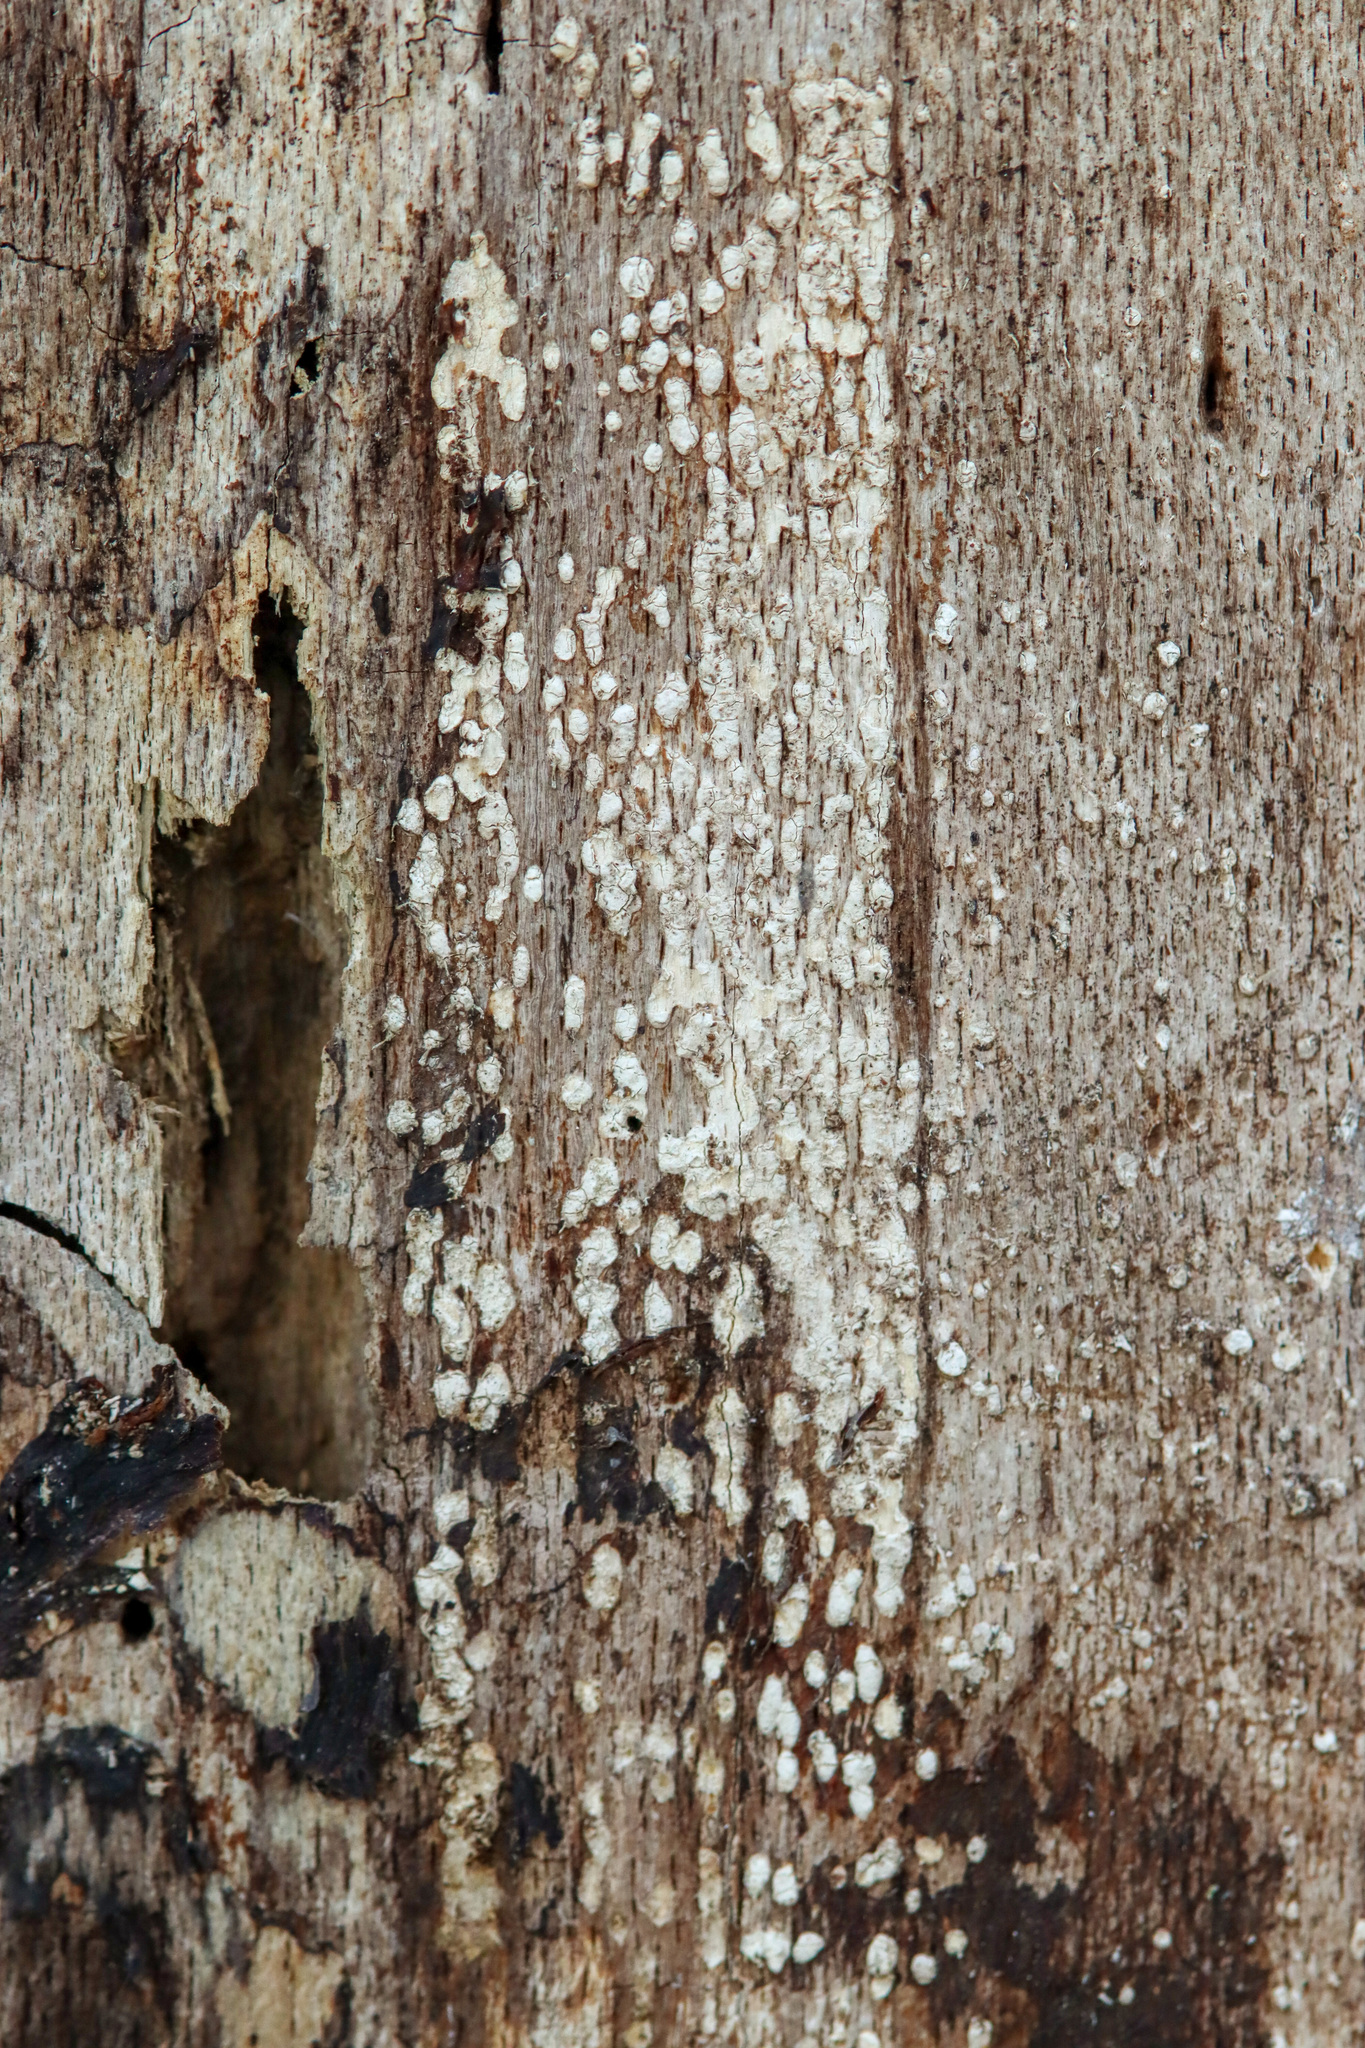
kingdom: Fungi
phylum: Ascomycota
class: Leotiomycetes
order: Chaetomellales
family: Marthamycetaceae
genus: Propolis
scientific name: Propolis farinosa
